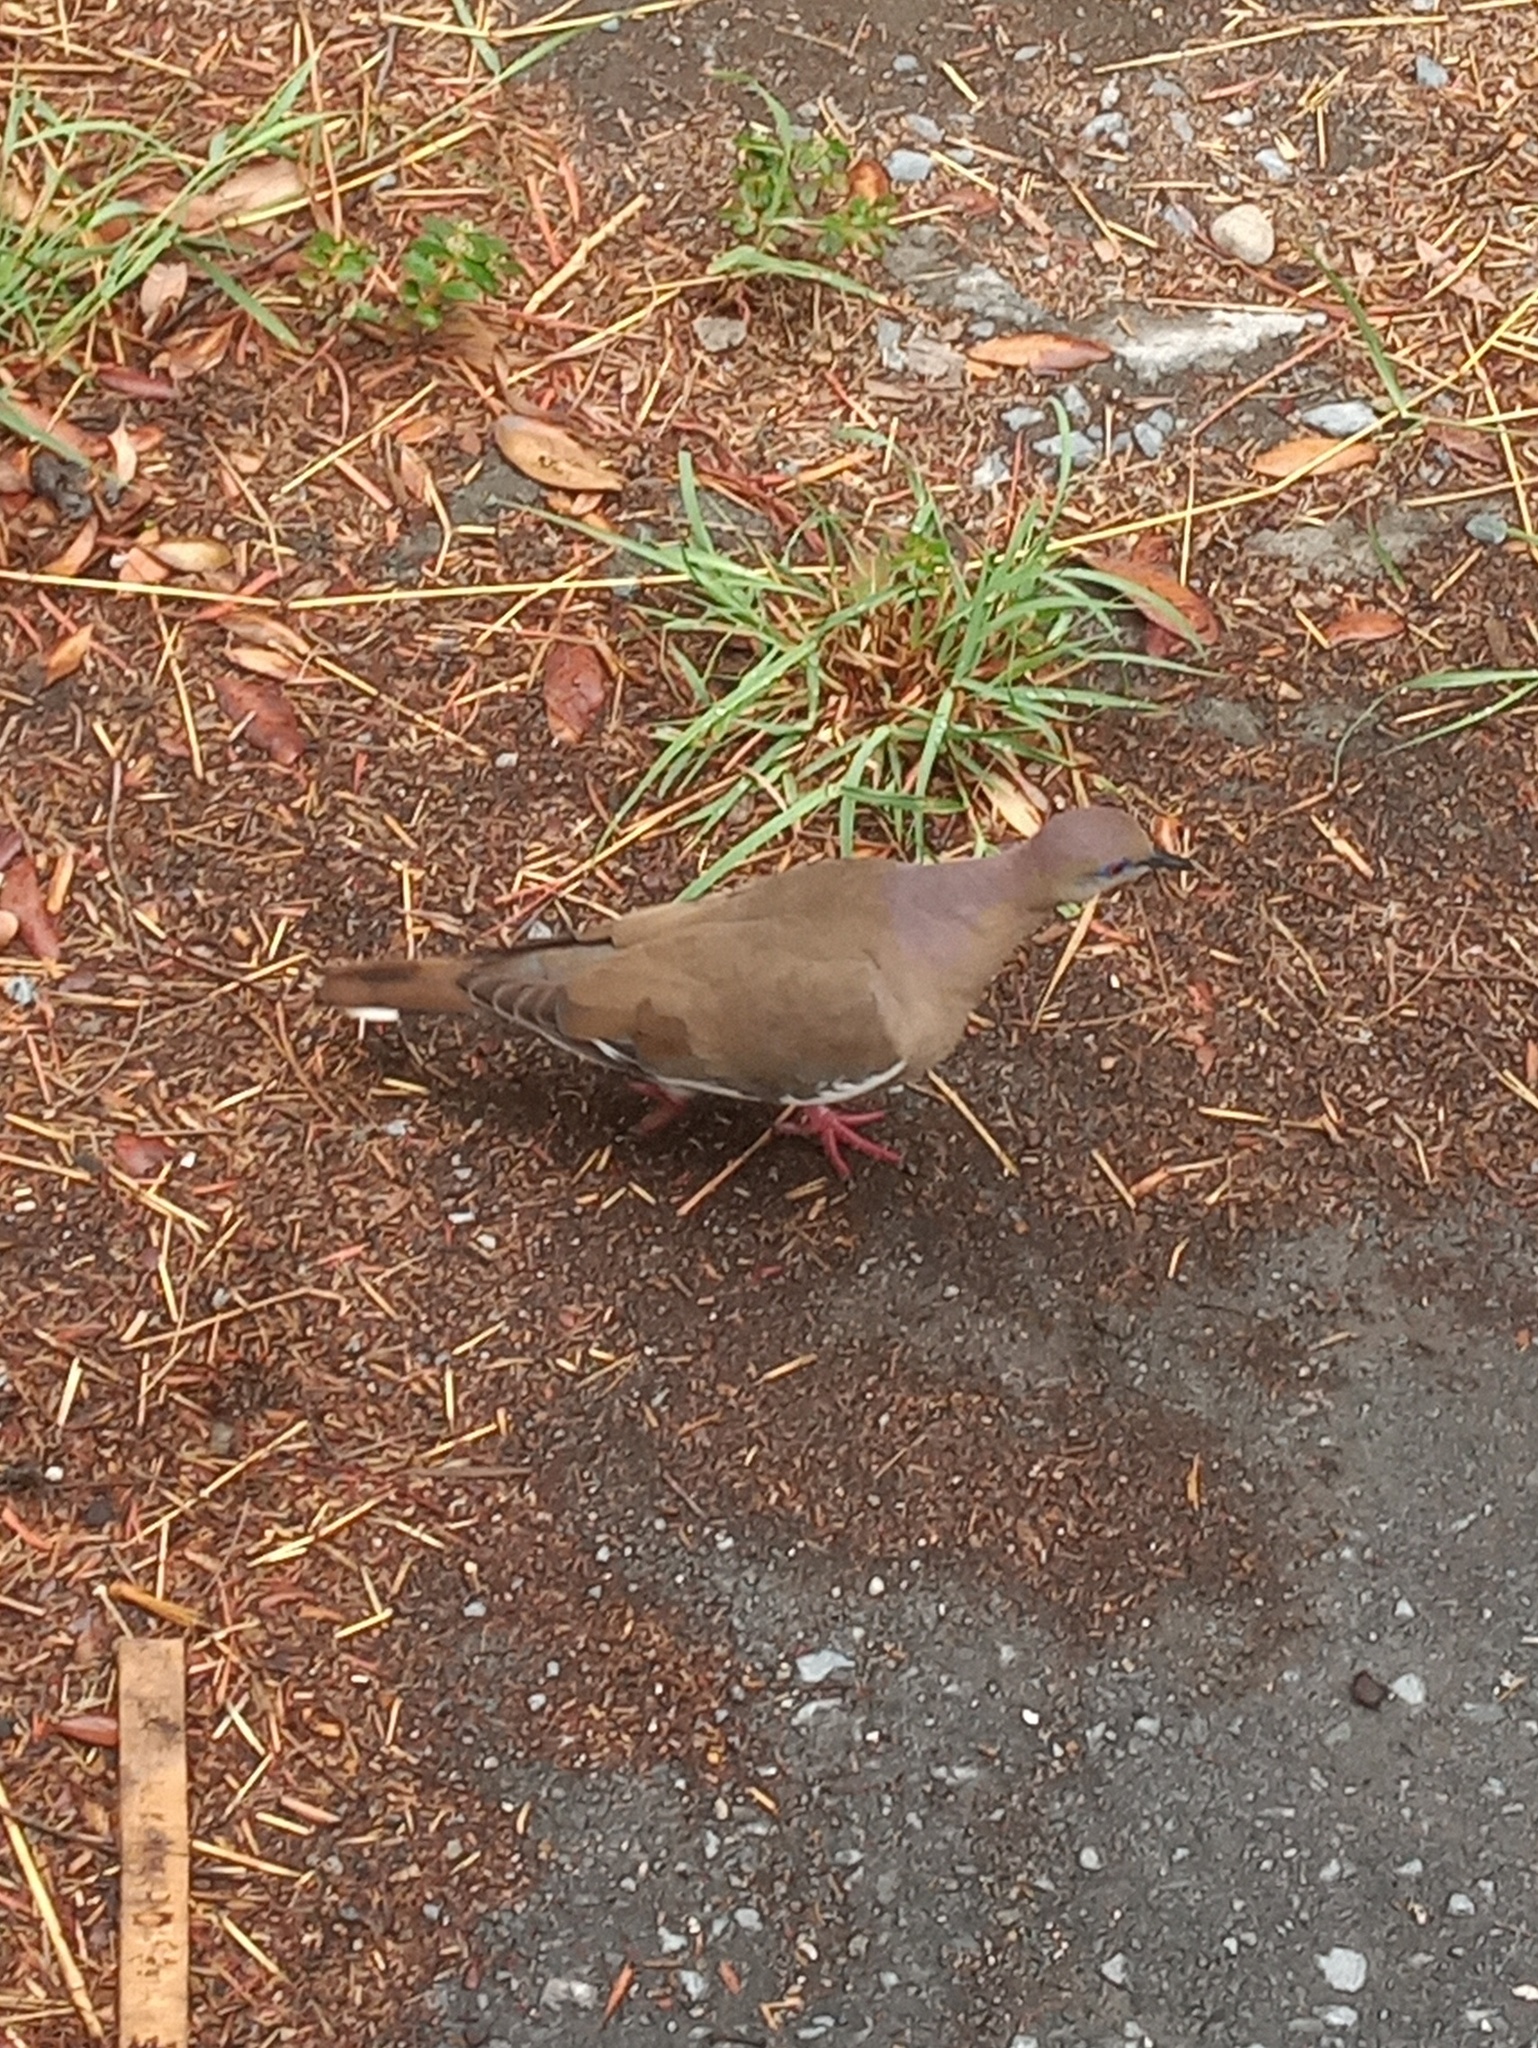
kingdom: Animalia
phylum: Chordata
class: Aves
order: Columbiformes
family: Columbidae
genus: Zenaida
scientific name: Zenaida asiatica
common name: White-winged dove
